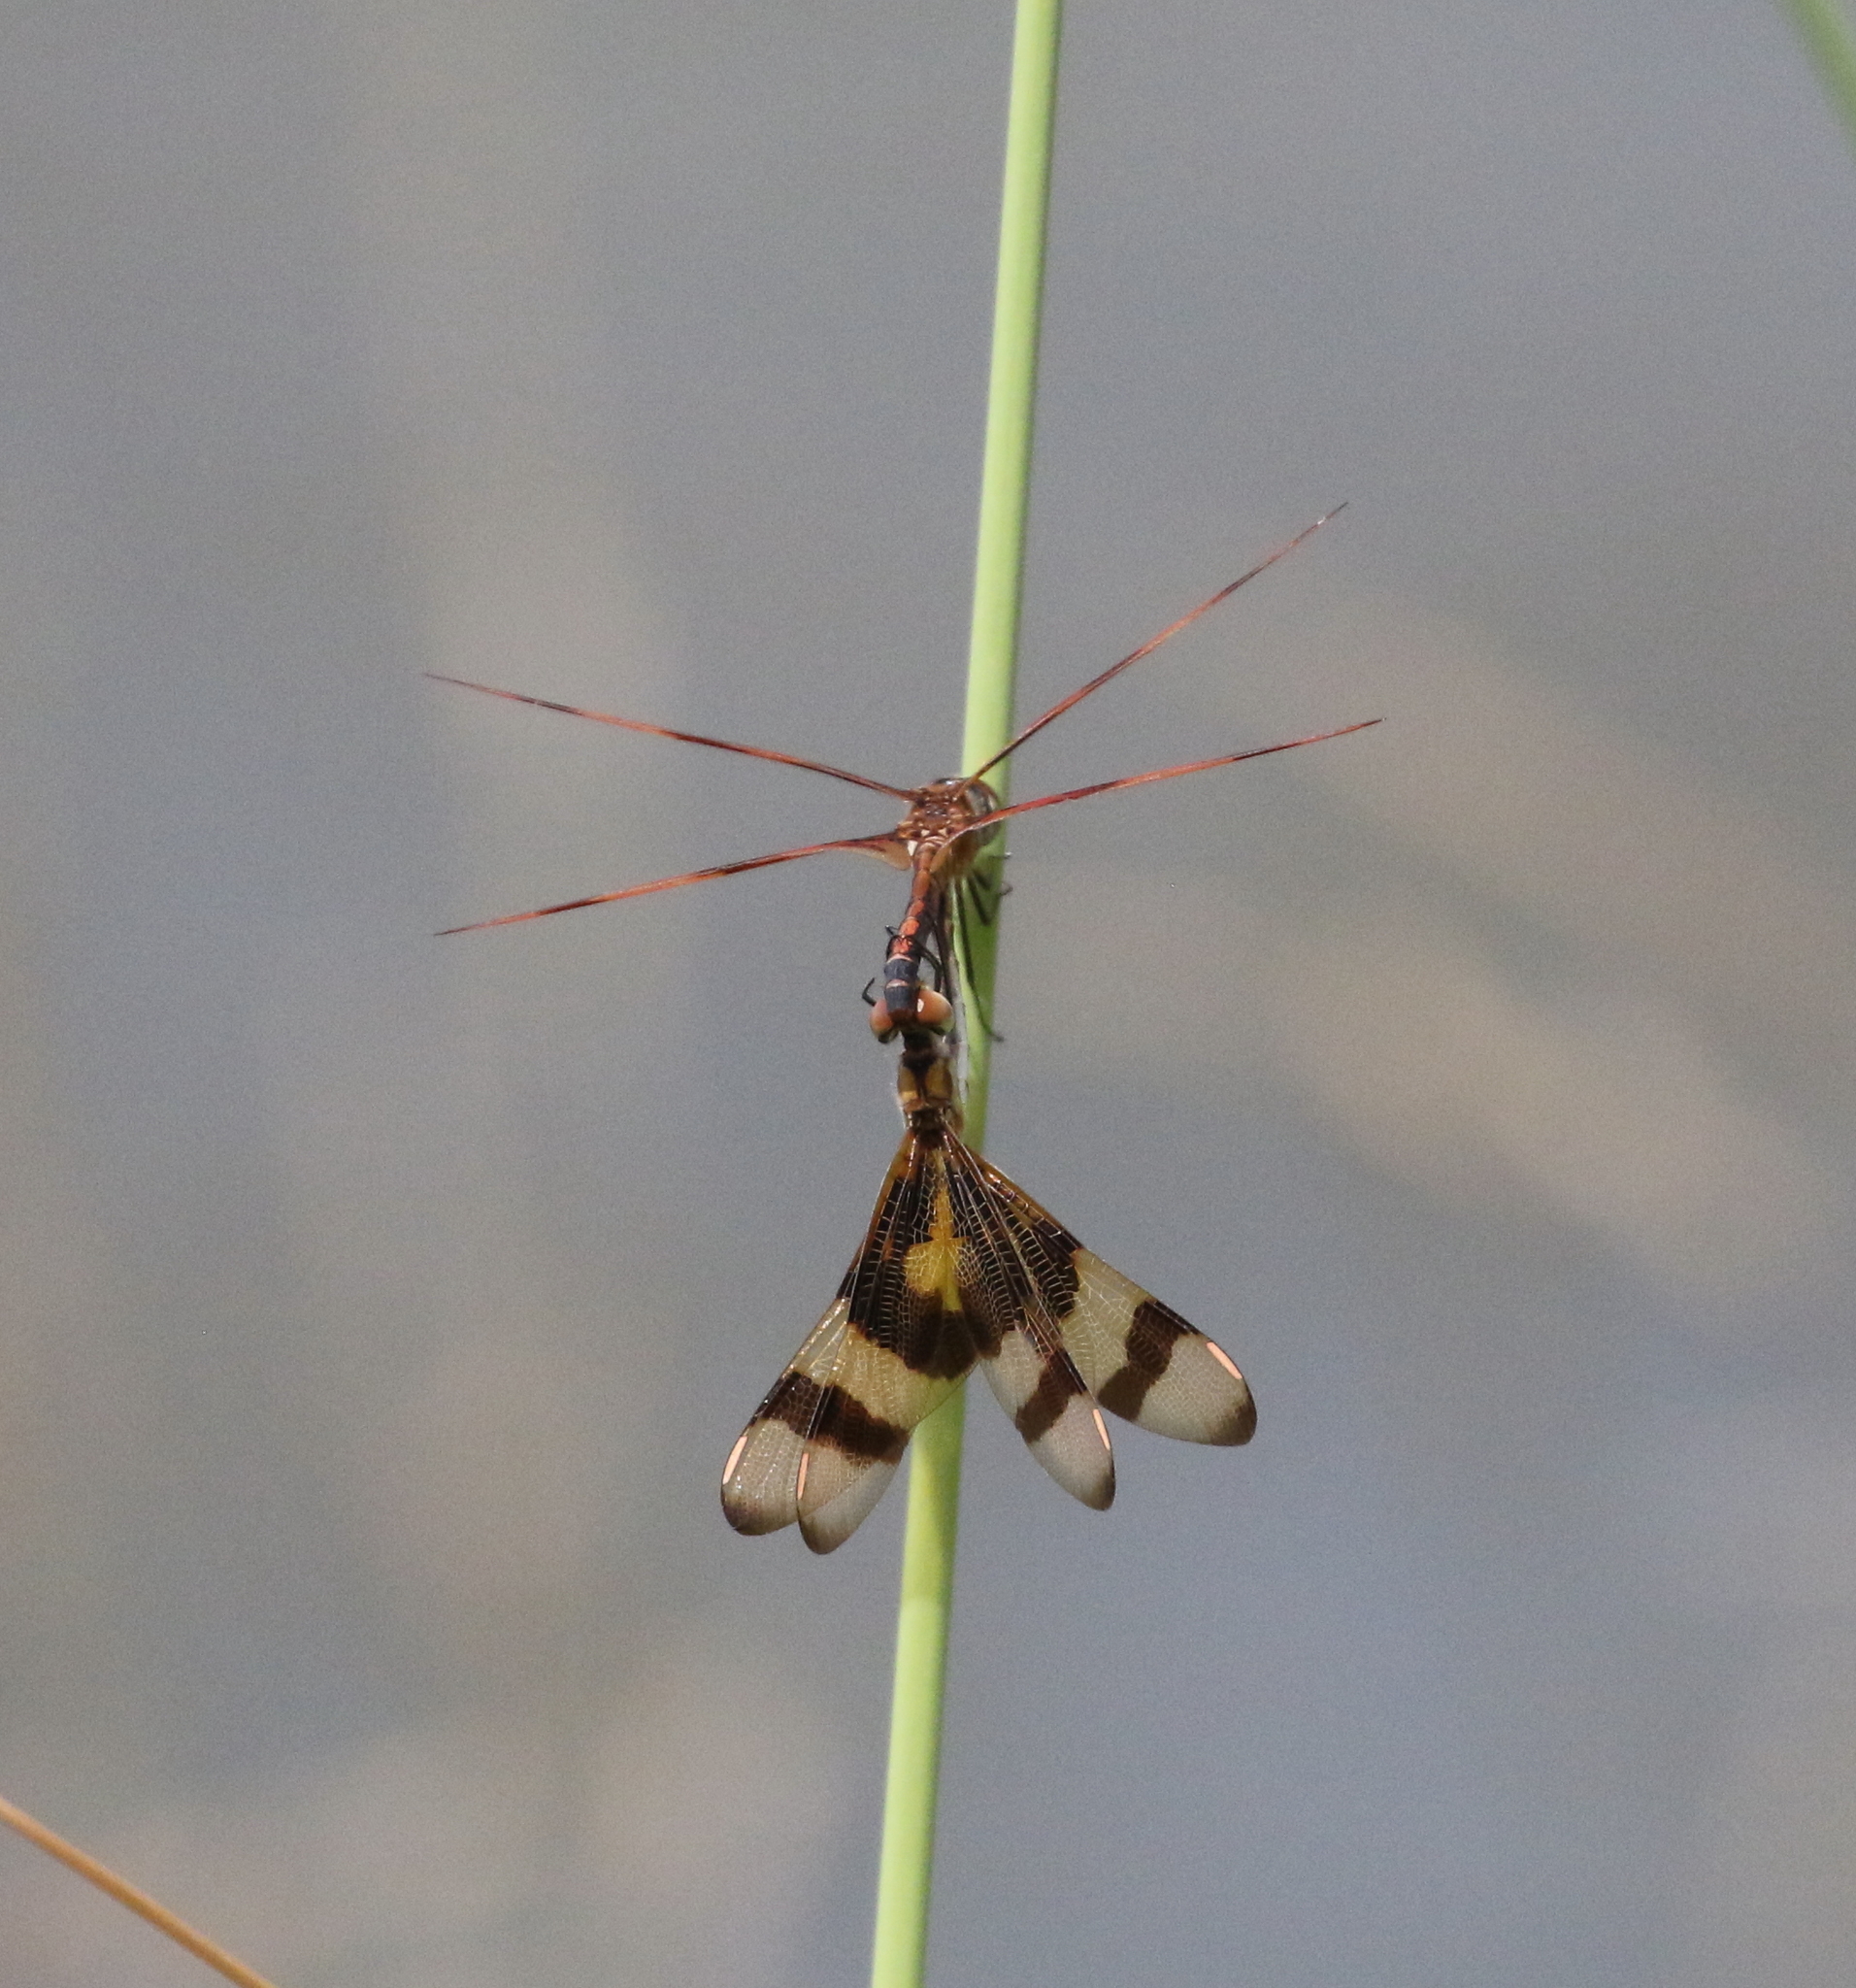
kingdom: Animalia
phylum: Arthropoda
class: Insecta
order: Odonata
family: Libellulidae
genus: Celithemis
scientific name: Celithemis eponina
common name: Halloween pennant
